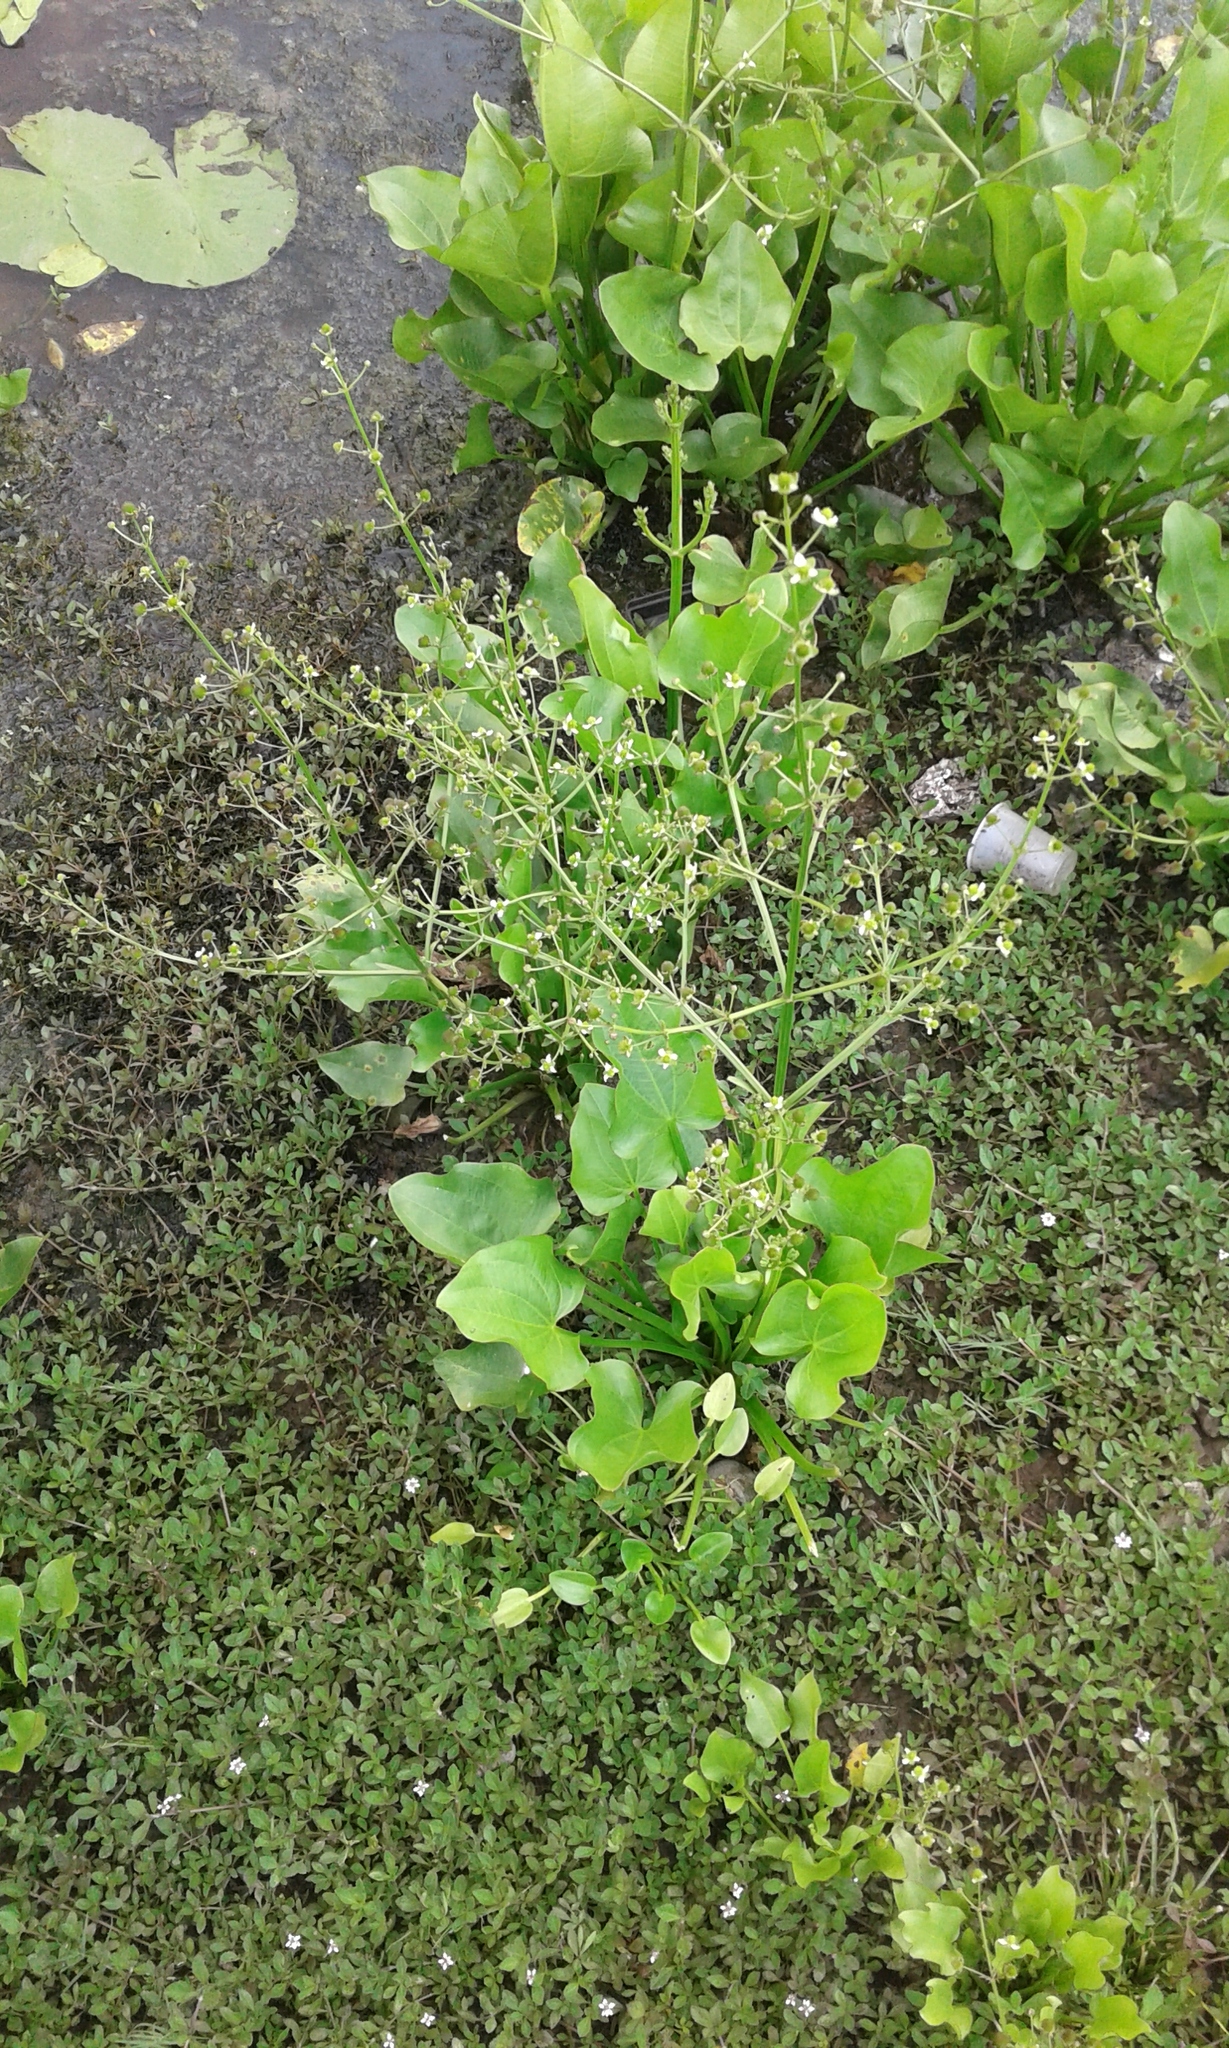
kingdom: Plantae
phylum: Tracheophyta
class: Liliopsida
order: Alismatales
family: Alismataceae
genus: Echinodorus
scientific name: Echinodorus berteroi
